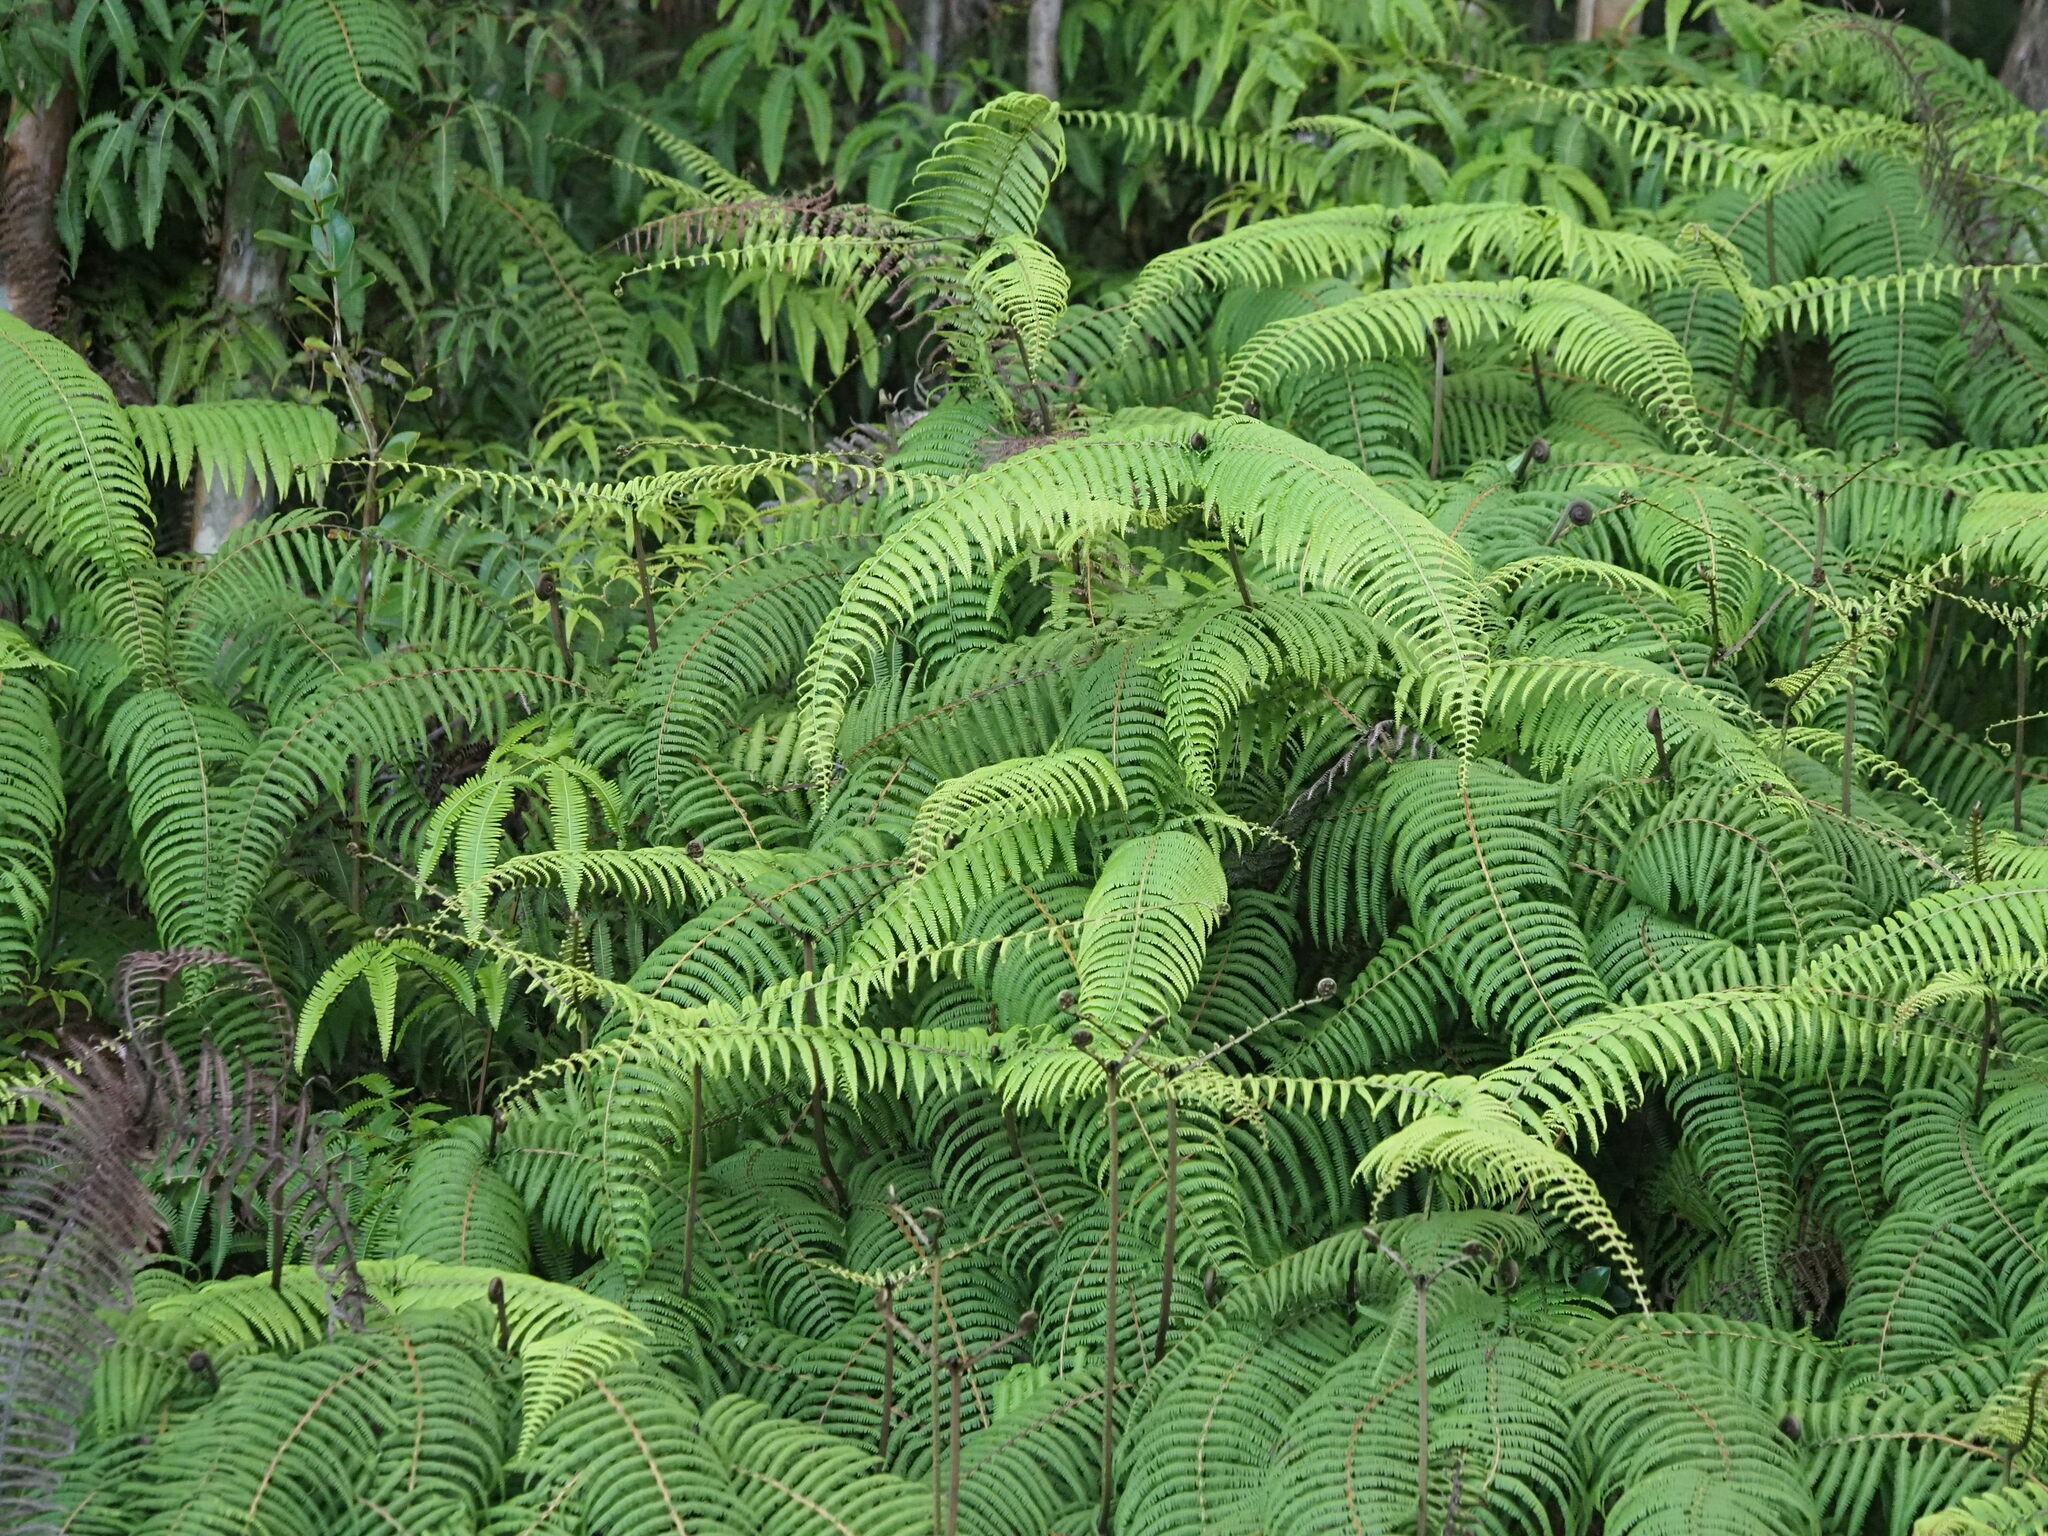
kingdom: Plantae
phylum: Tracheophyta
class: Polypodiopsida
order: Gleicheniales
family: Gleicheniaceae
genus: Diplopterygium
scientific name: Diplopterygium pinnatum
